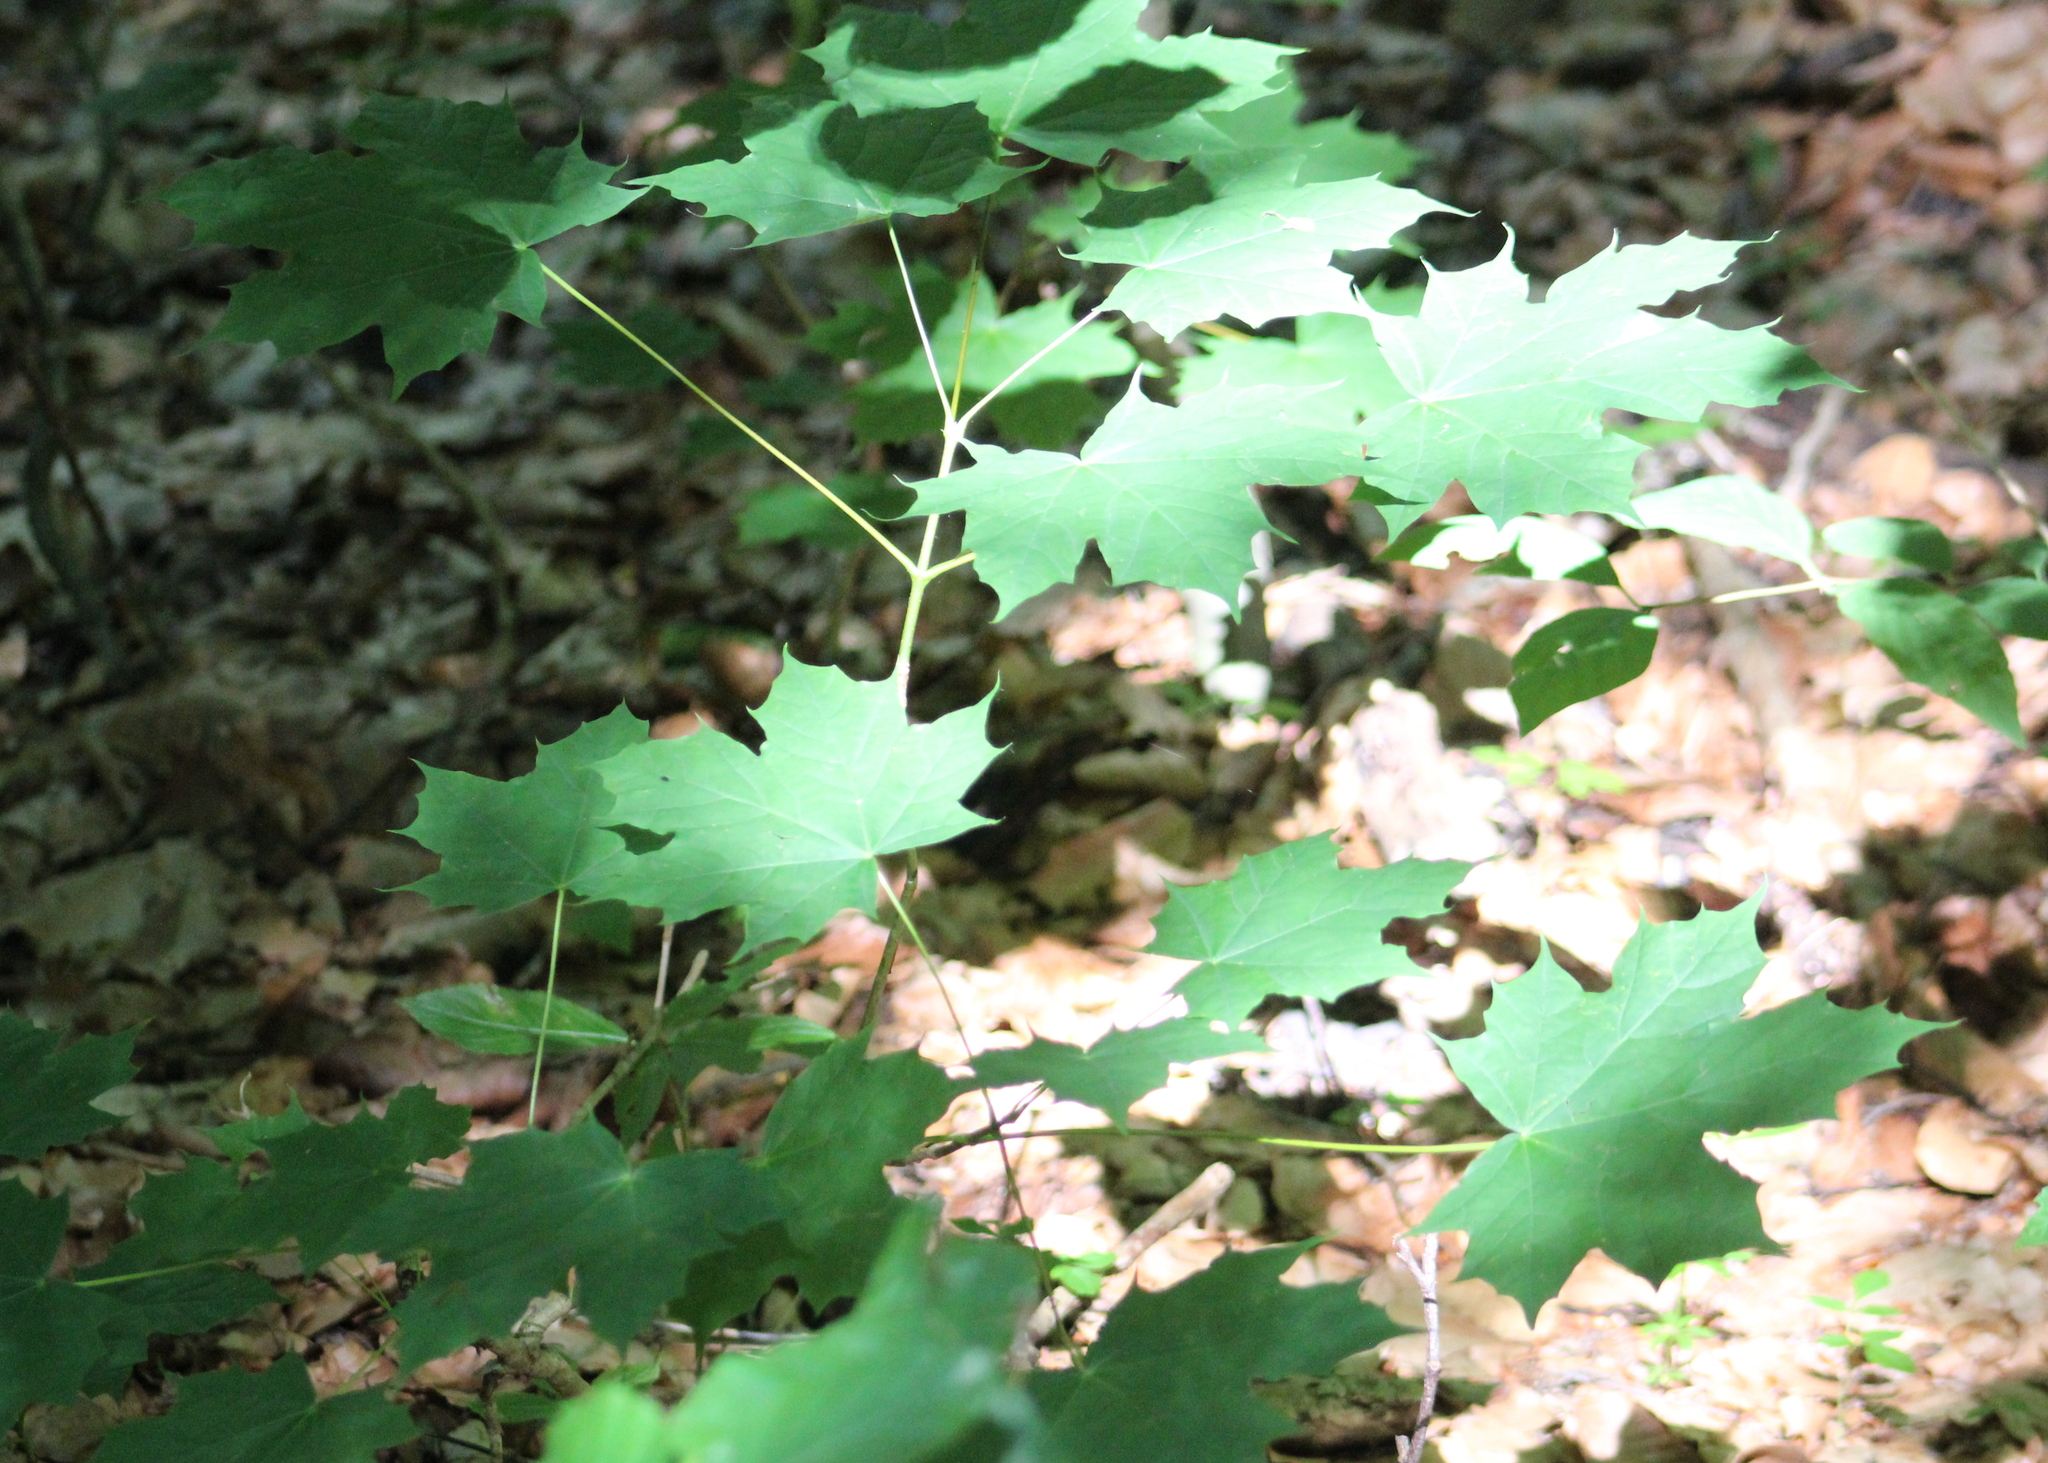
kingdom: Plantae
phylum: Tracheophyta
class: Magnoliopsida
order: Sapindales
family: Sapindaceae
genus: Acer
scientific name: Acer platanoides
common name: Norway maple
